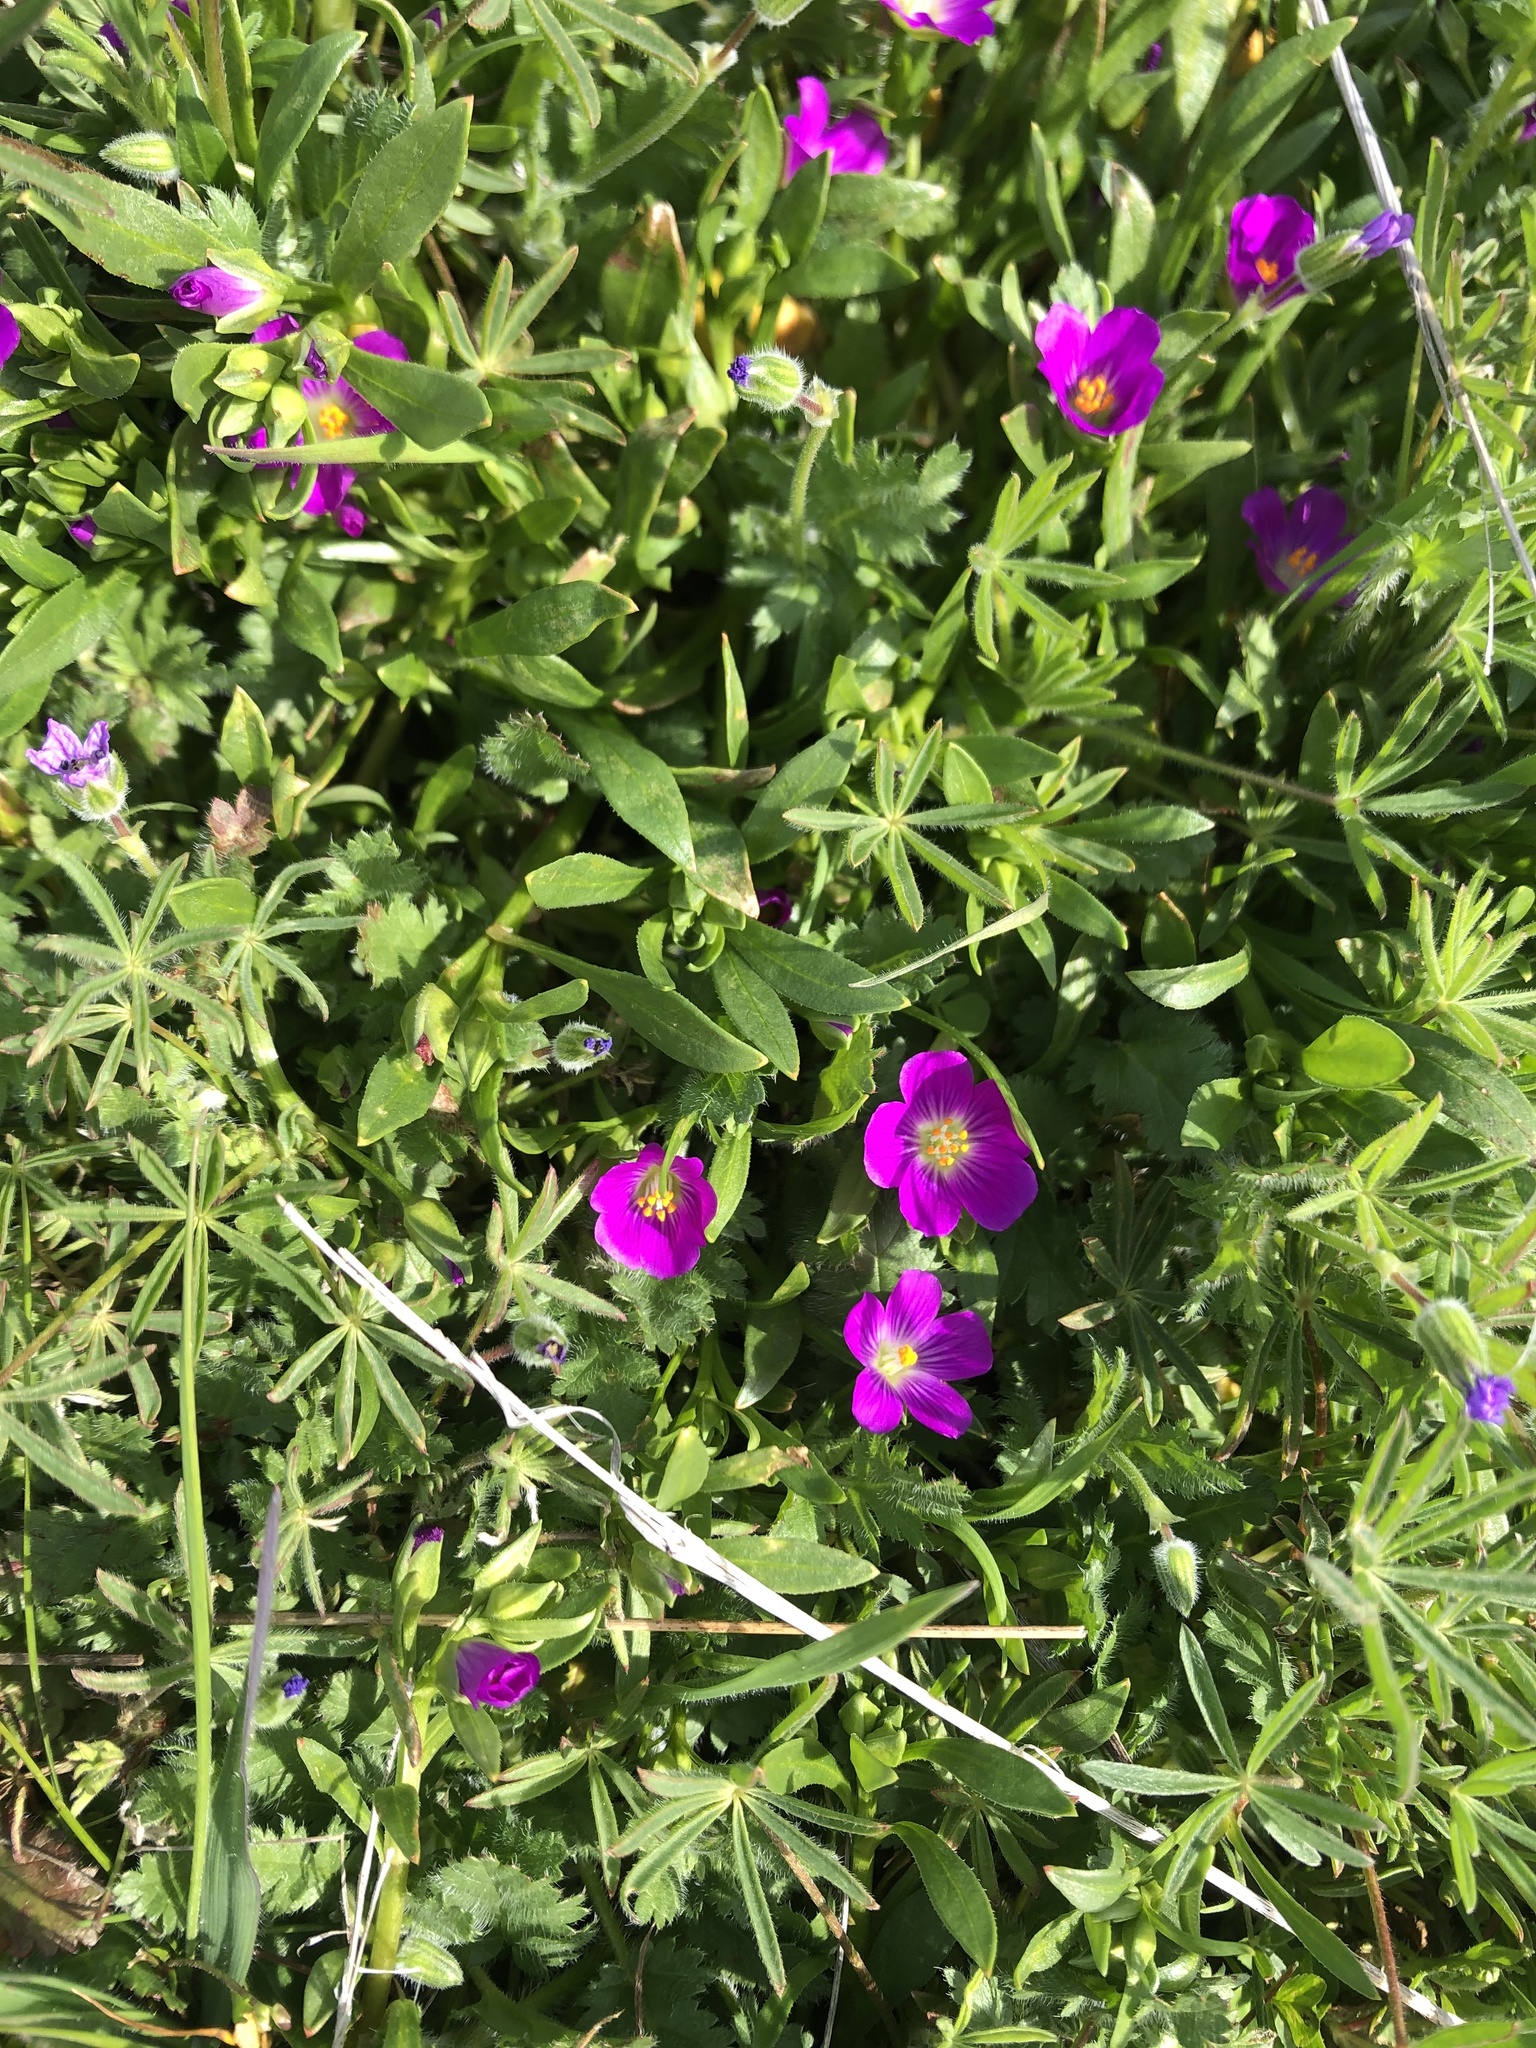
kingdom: Plantae
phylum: Tracheophyta
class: Magnoliopsida
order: Caryophyllales
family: Montiaceae
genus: Calandrinia
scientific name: Calandrinia menziesii
